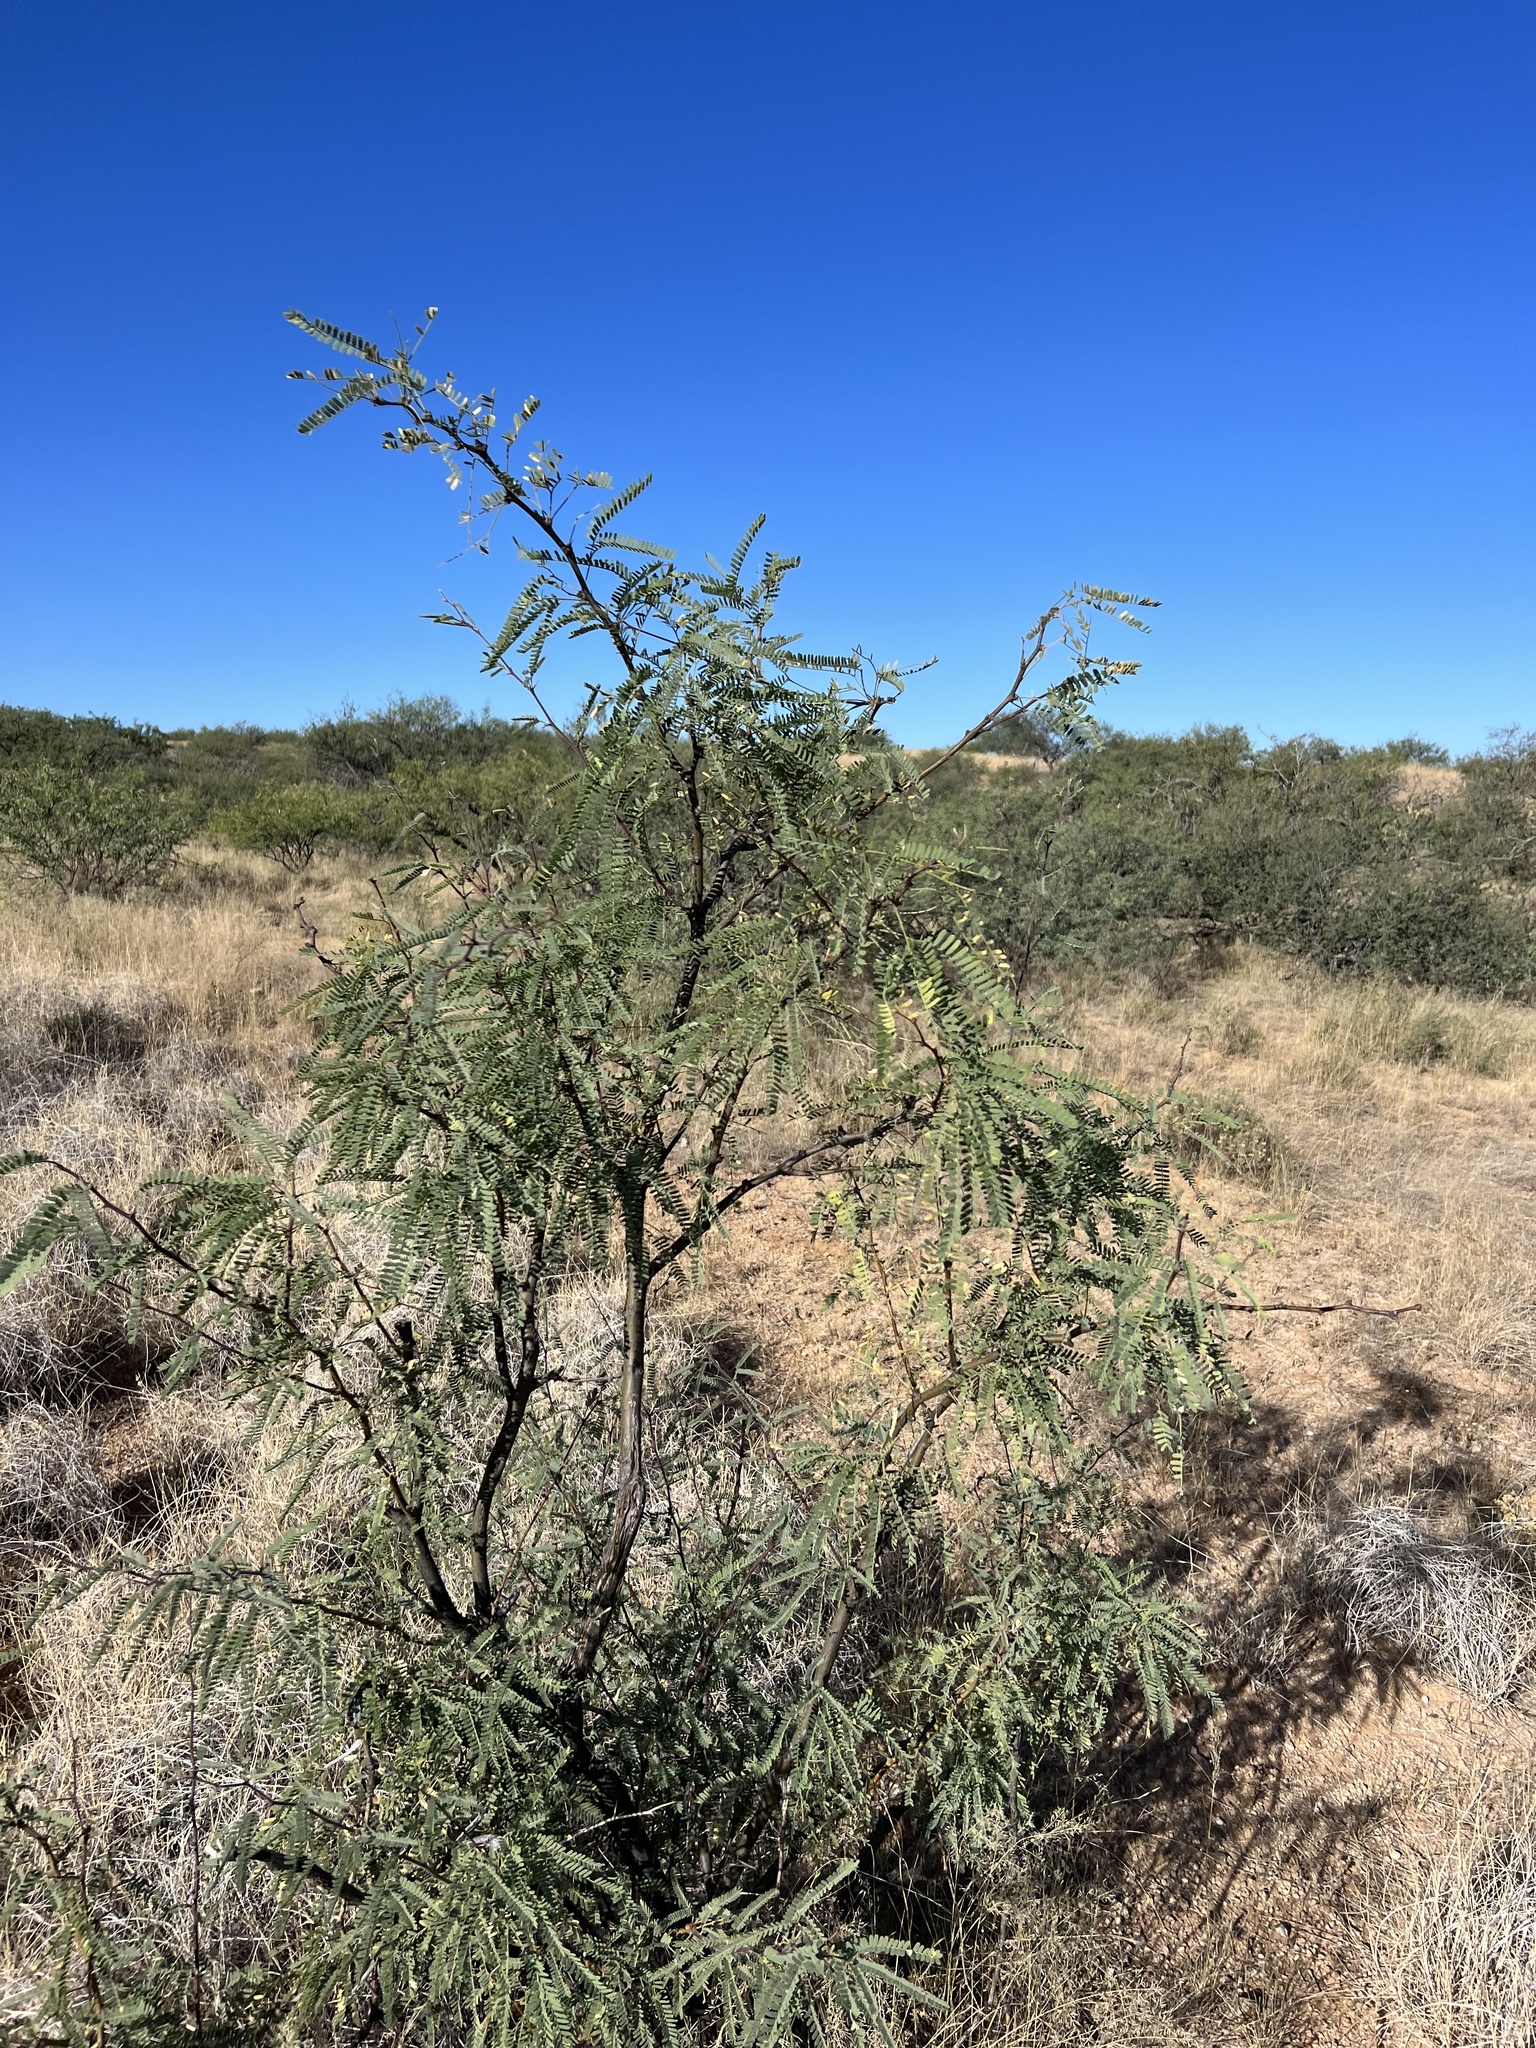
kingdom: Plantae
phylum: Tracheophyta
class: Magnoliopsida
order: Fabales
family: Fabaceae
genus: Prosopis
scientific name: Prosopis velutina
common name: Velvet mesquite
